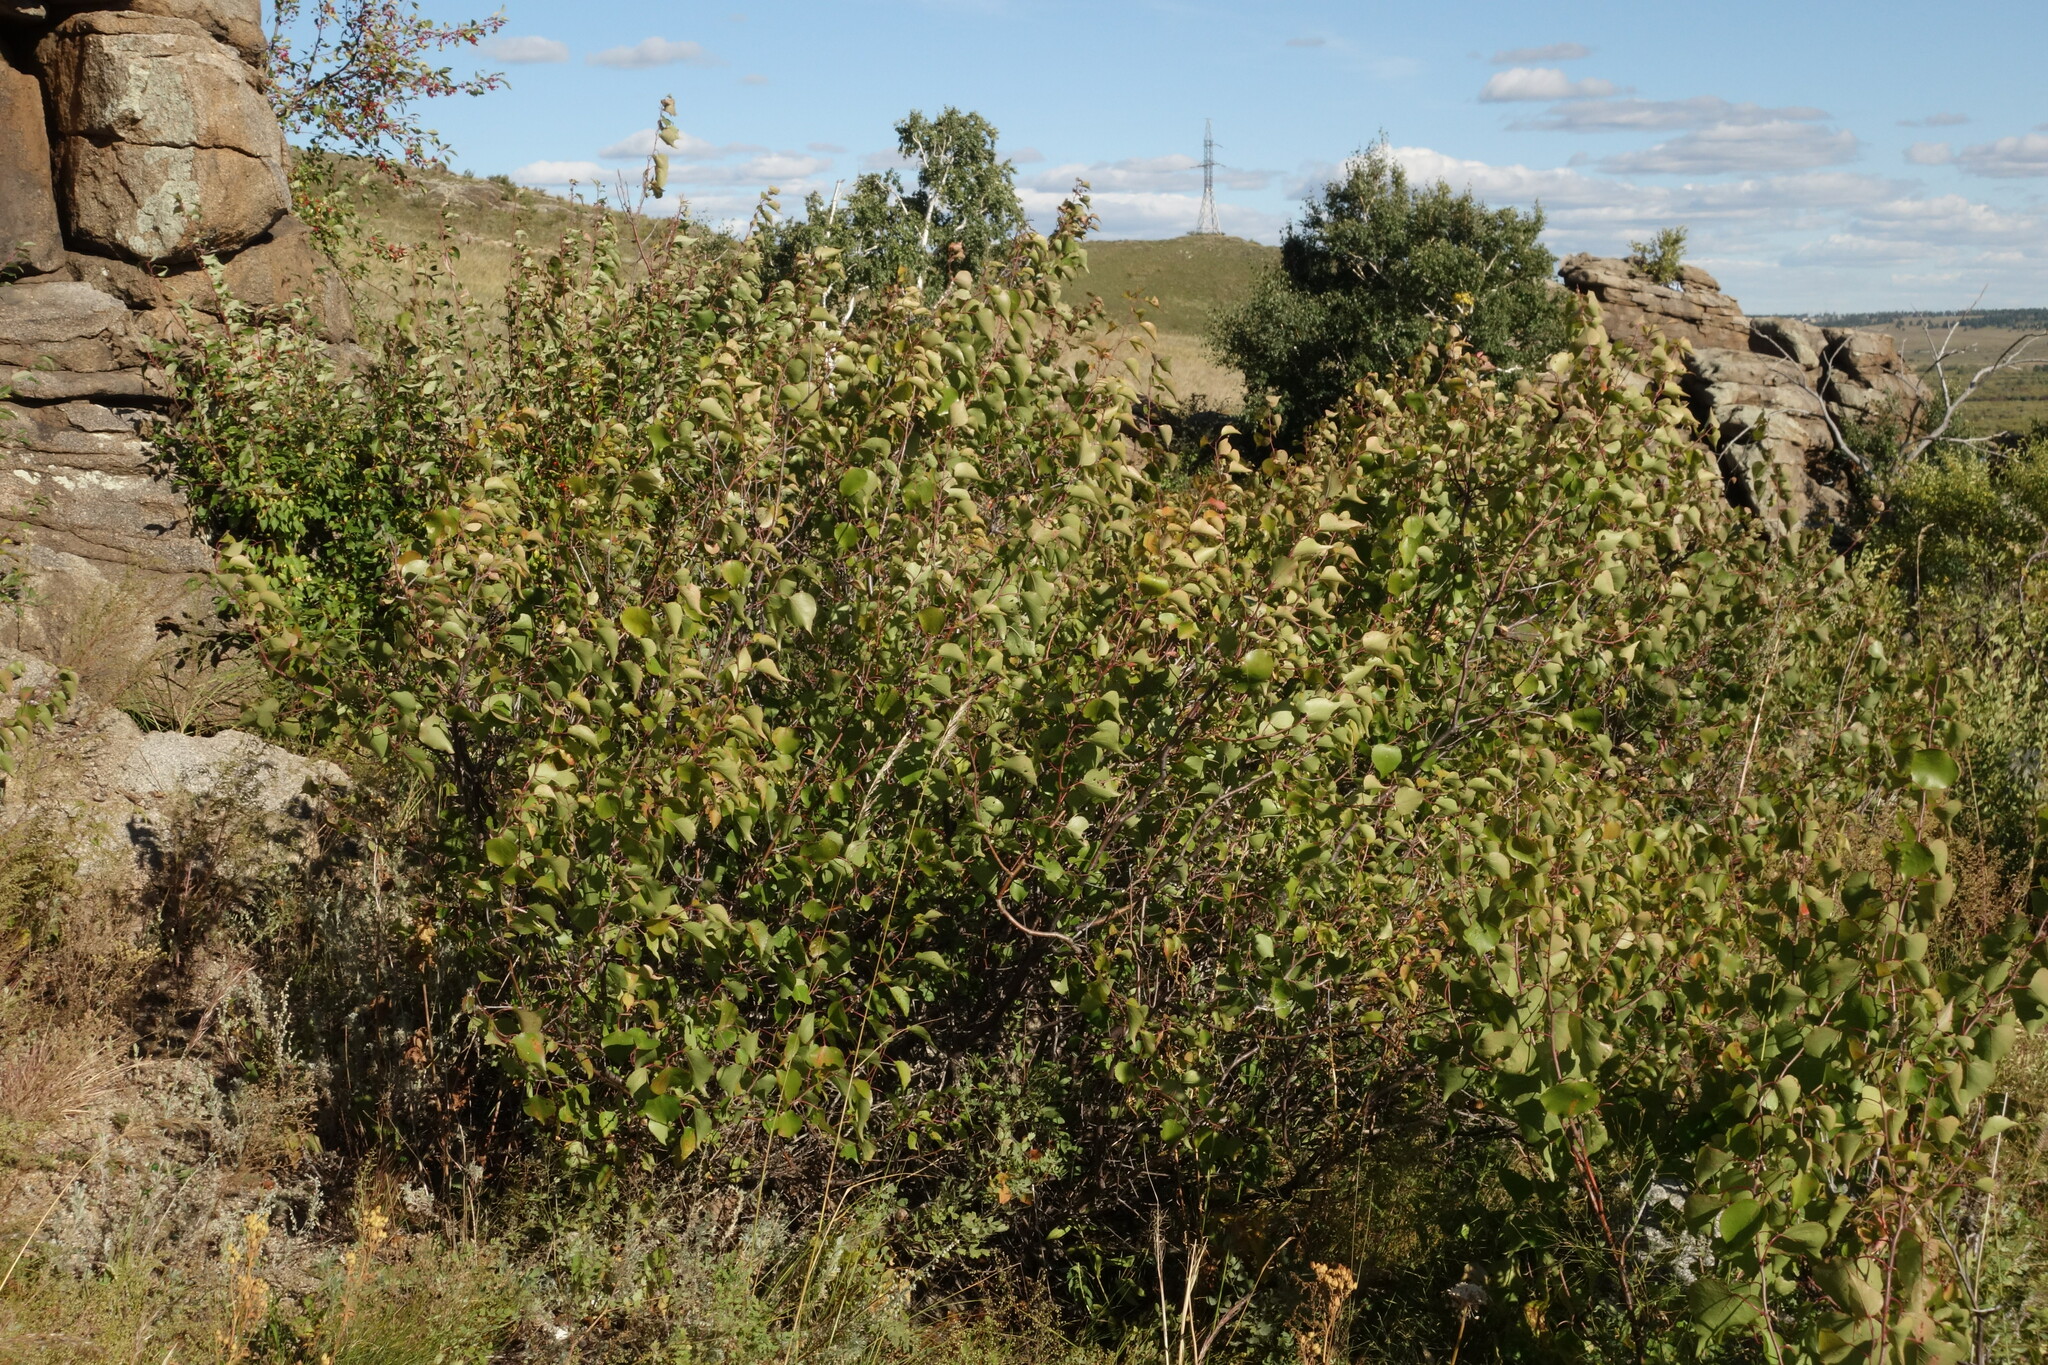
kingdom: Plantae
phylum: Tracheophyta
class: Magnoliopsida
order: Rosales
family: Rosaceae
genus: Prunus
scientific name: Prunus sibirica
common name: Siberian apricot
